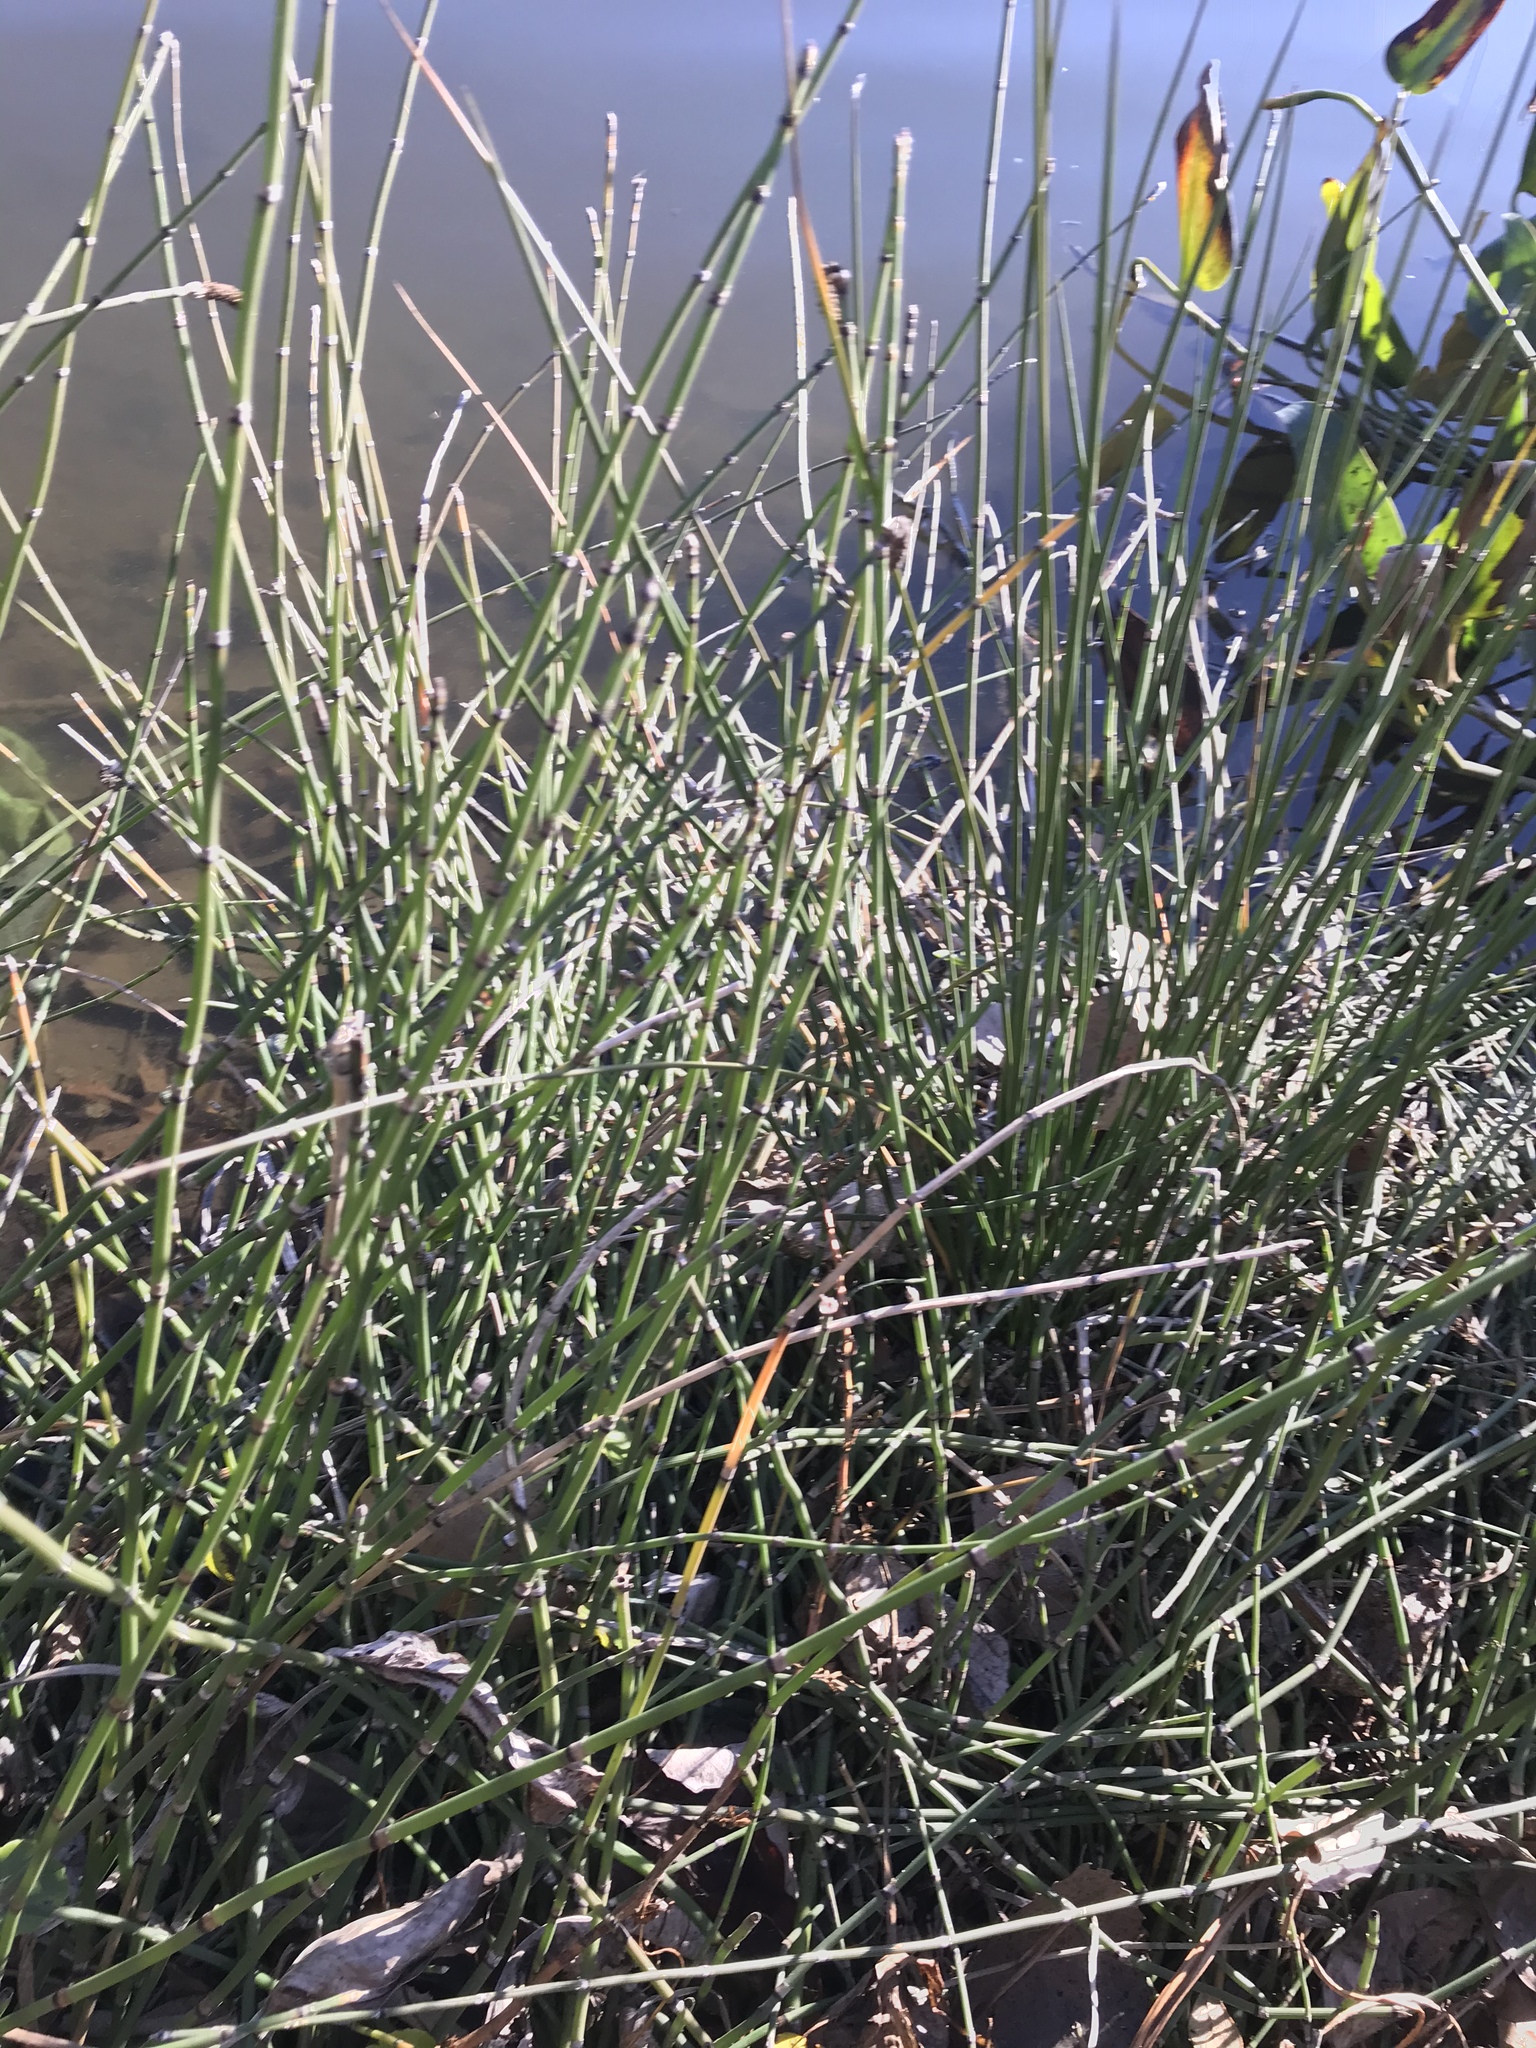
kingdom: Plantae
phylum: Tracheophyta
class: Polypodiopsida
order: Equisetales
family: Equisetaceae
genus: Equisetum
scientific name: Equisetum praealtum
